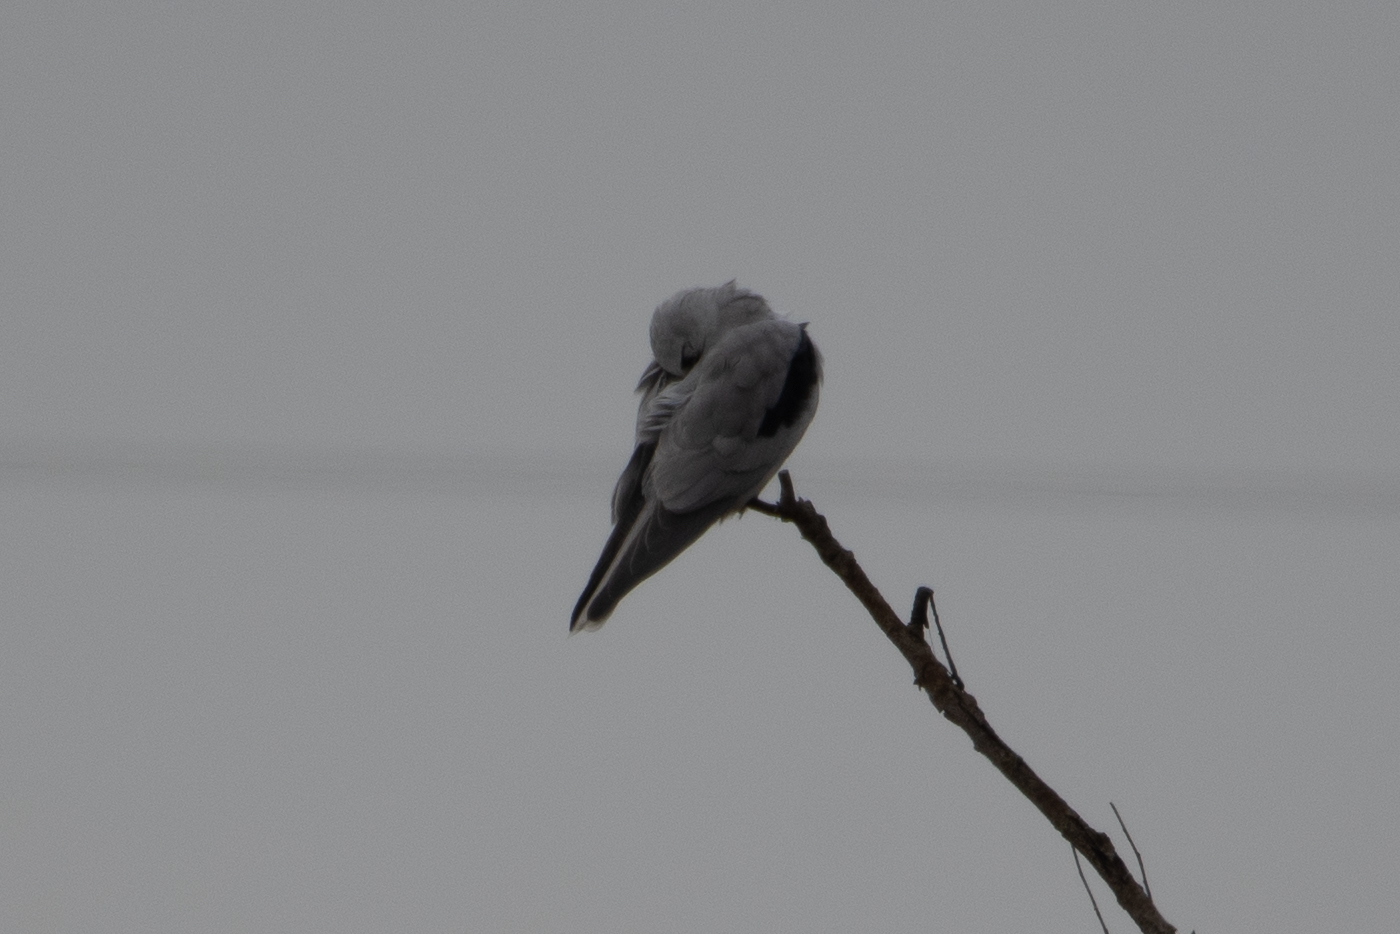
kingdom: Animalia
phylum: Chordata
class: Aves
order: Accipitriformes
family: Accipitridae
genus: Elanus
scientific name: Elanus leucurus
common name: White-tailed kite
